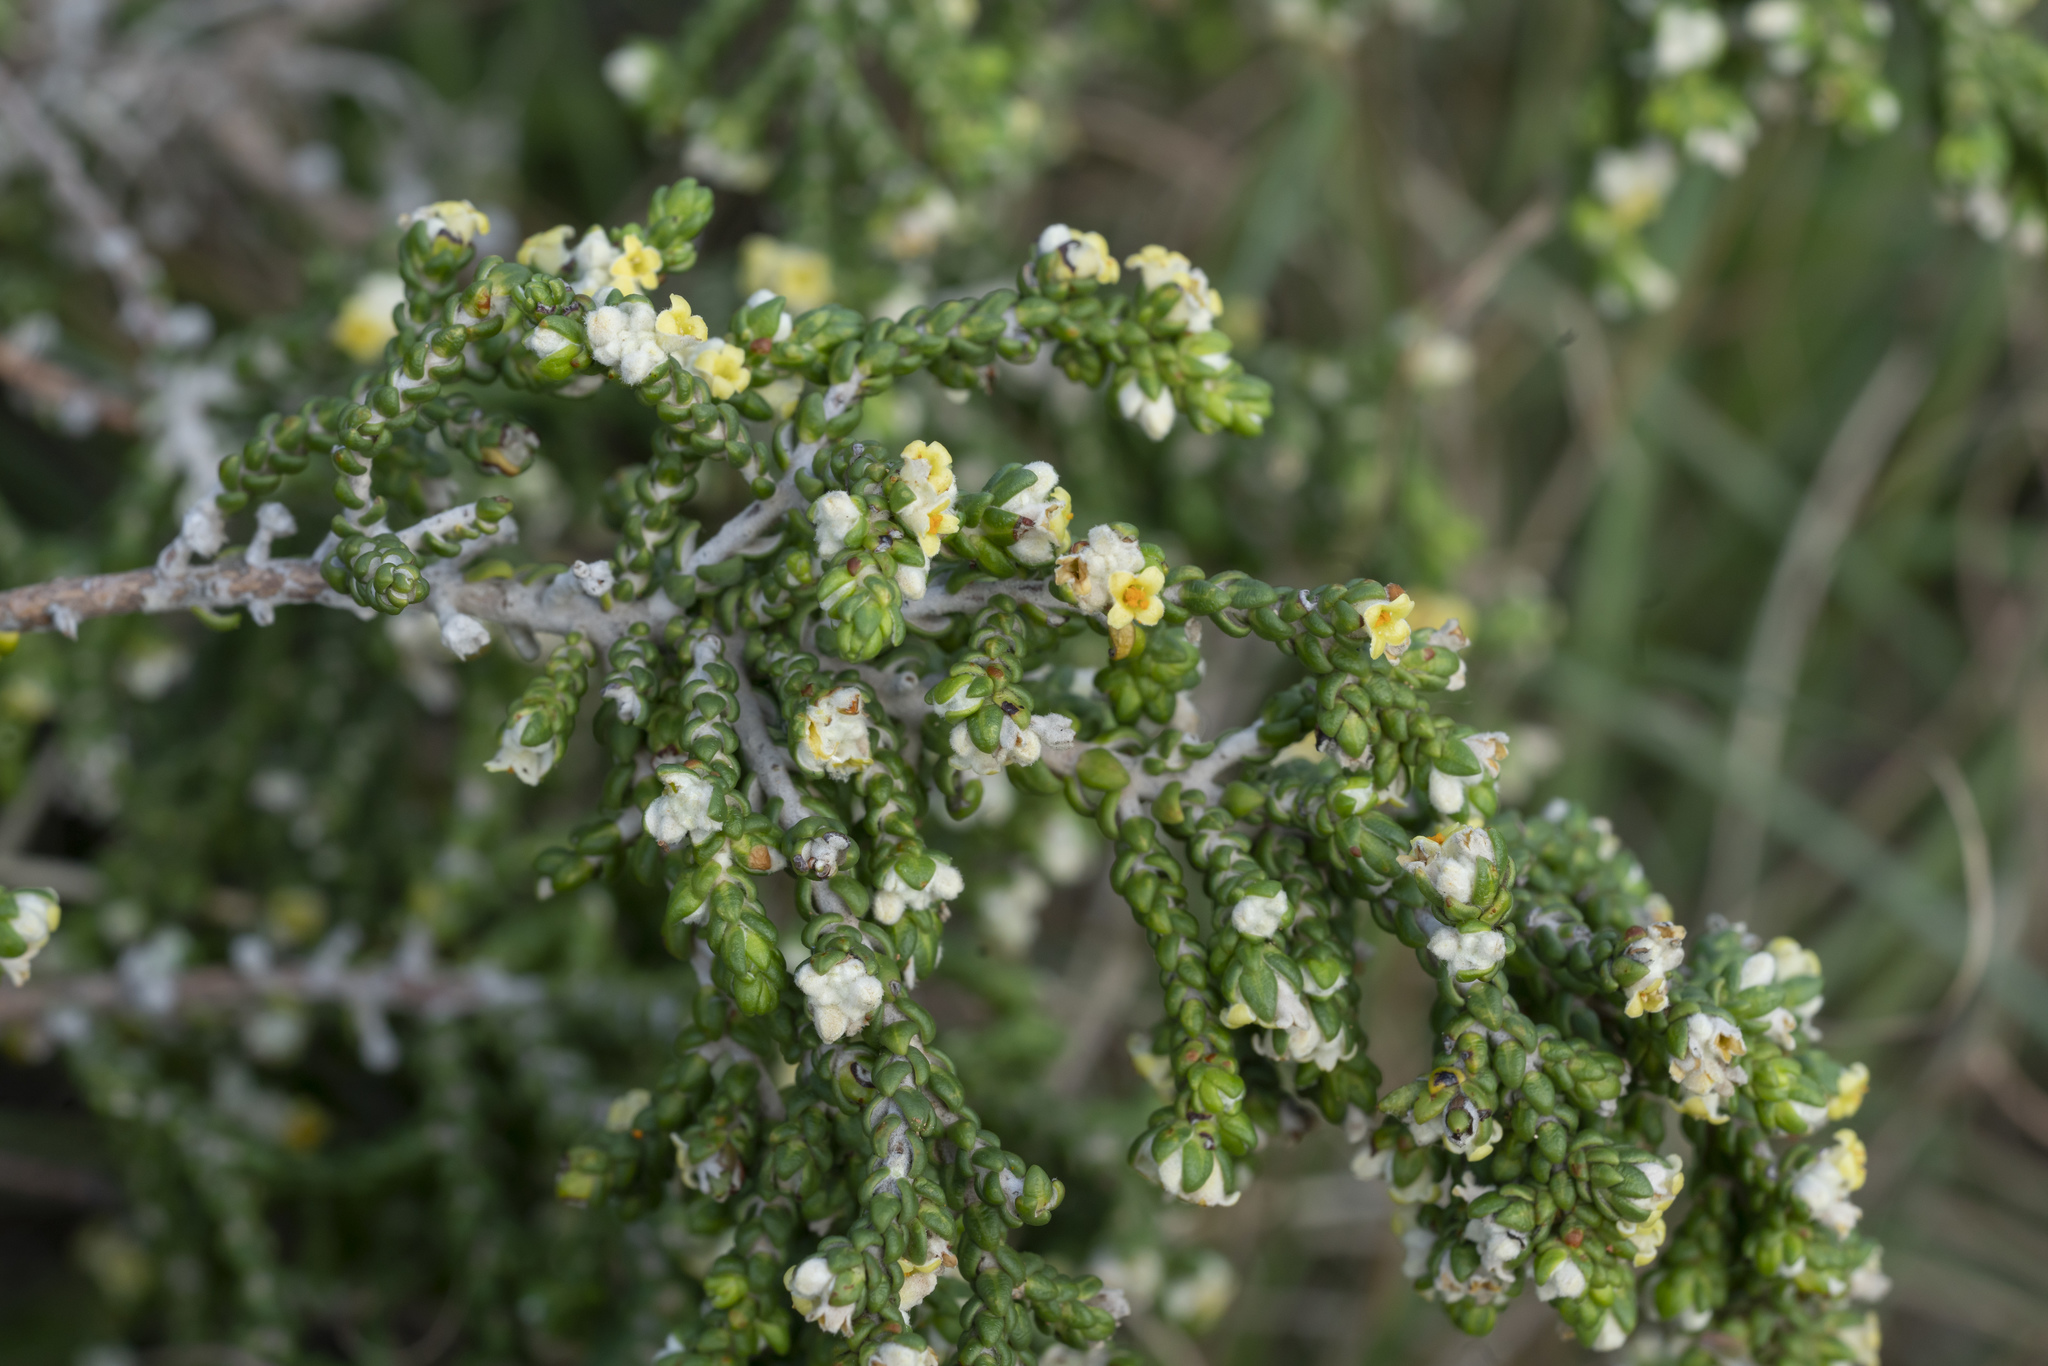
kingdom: Plantae
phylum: Tracheophyta
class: Magnoliopsida
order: Malvales
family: Thymelaeaceae
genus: Thymelaea
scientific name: Thymelaea hirsuta
